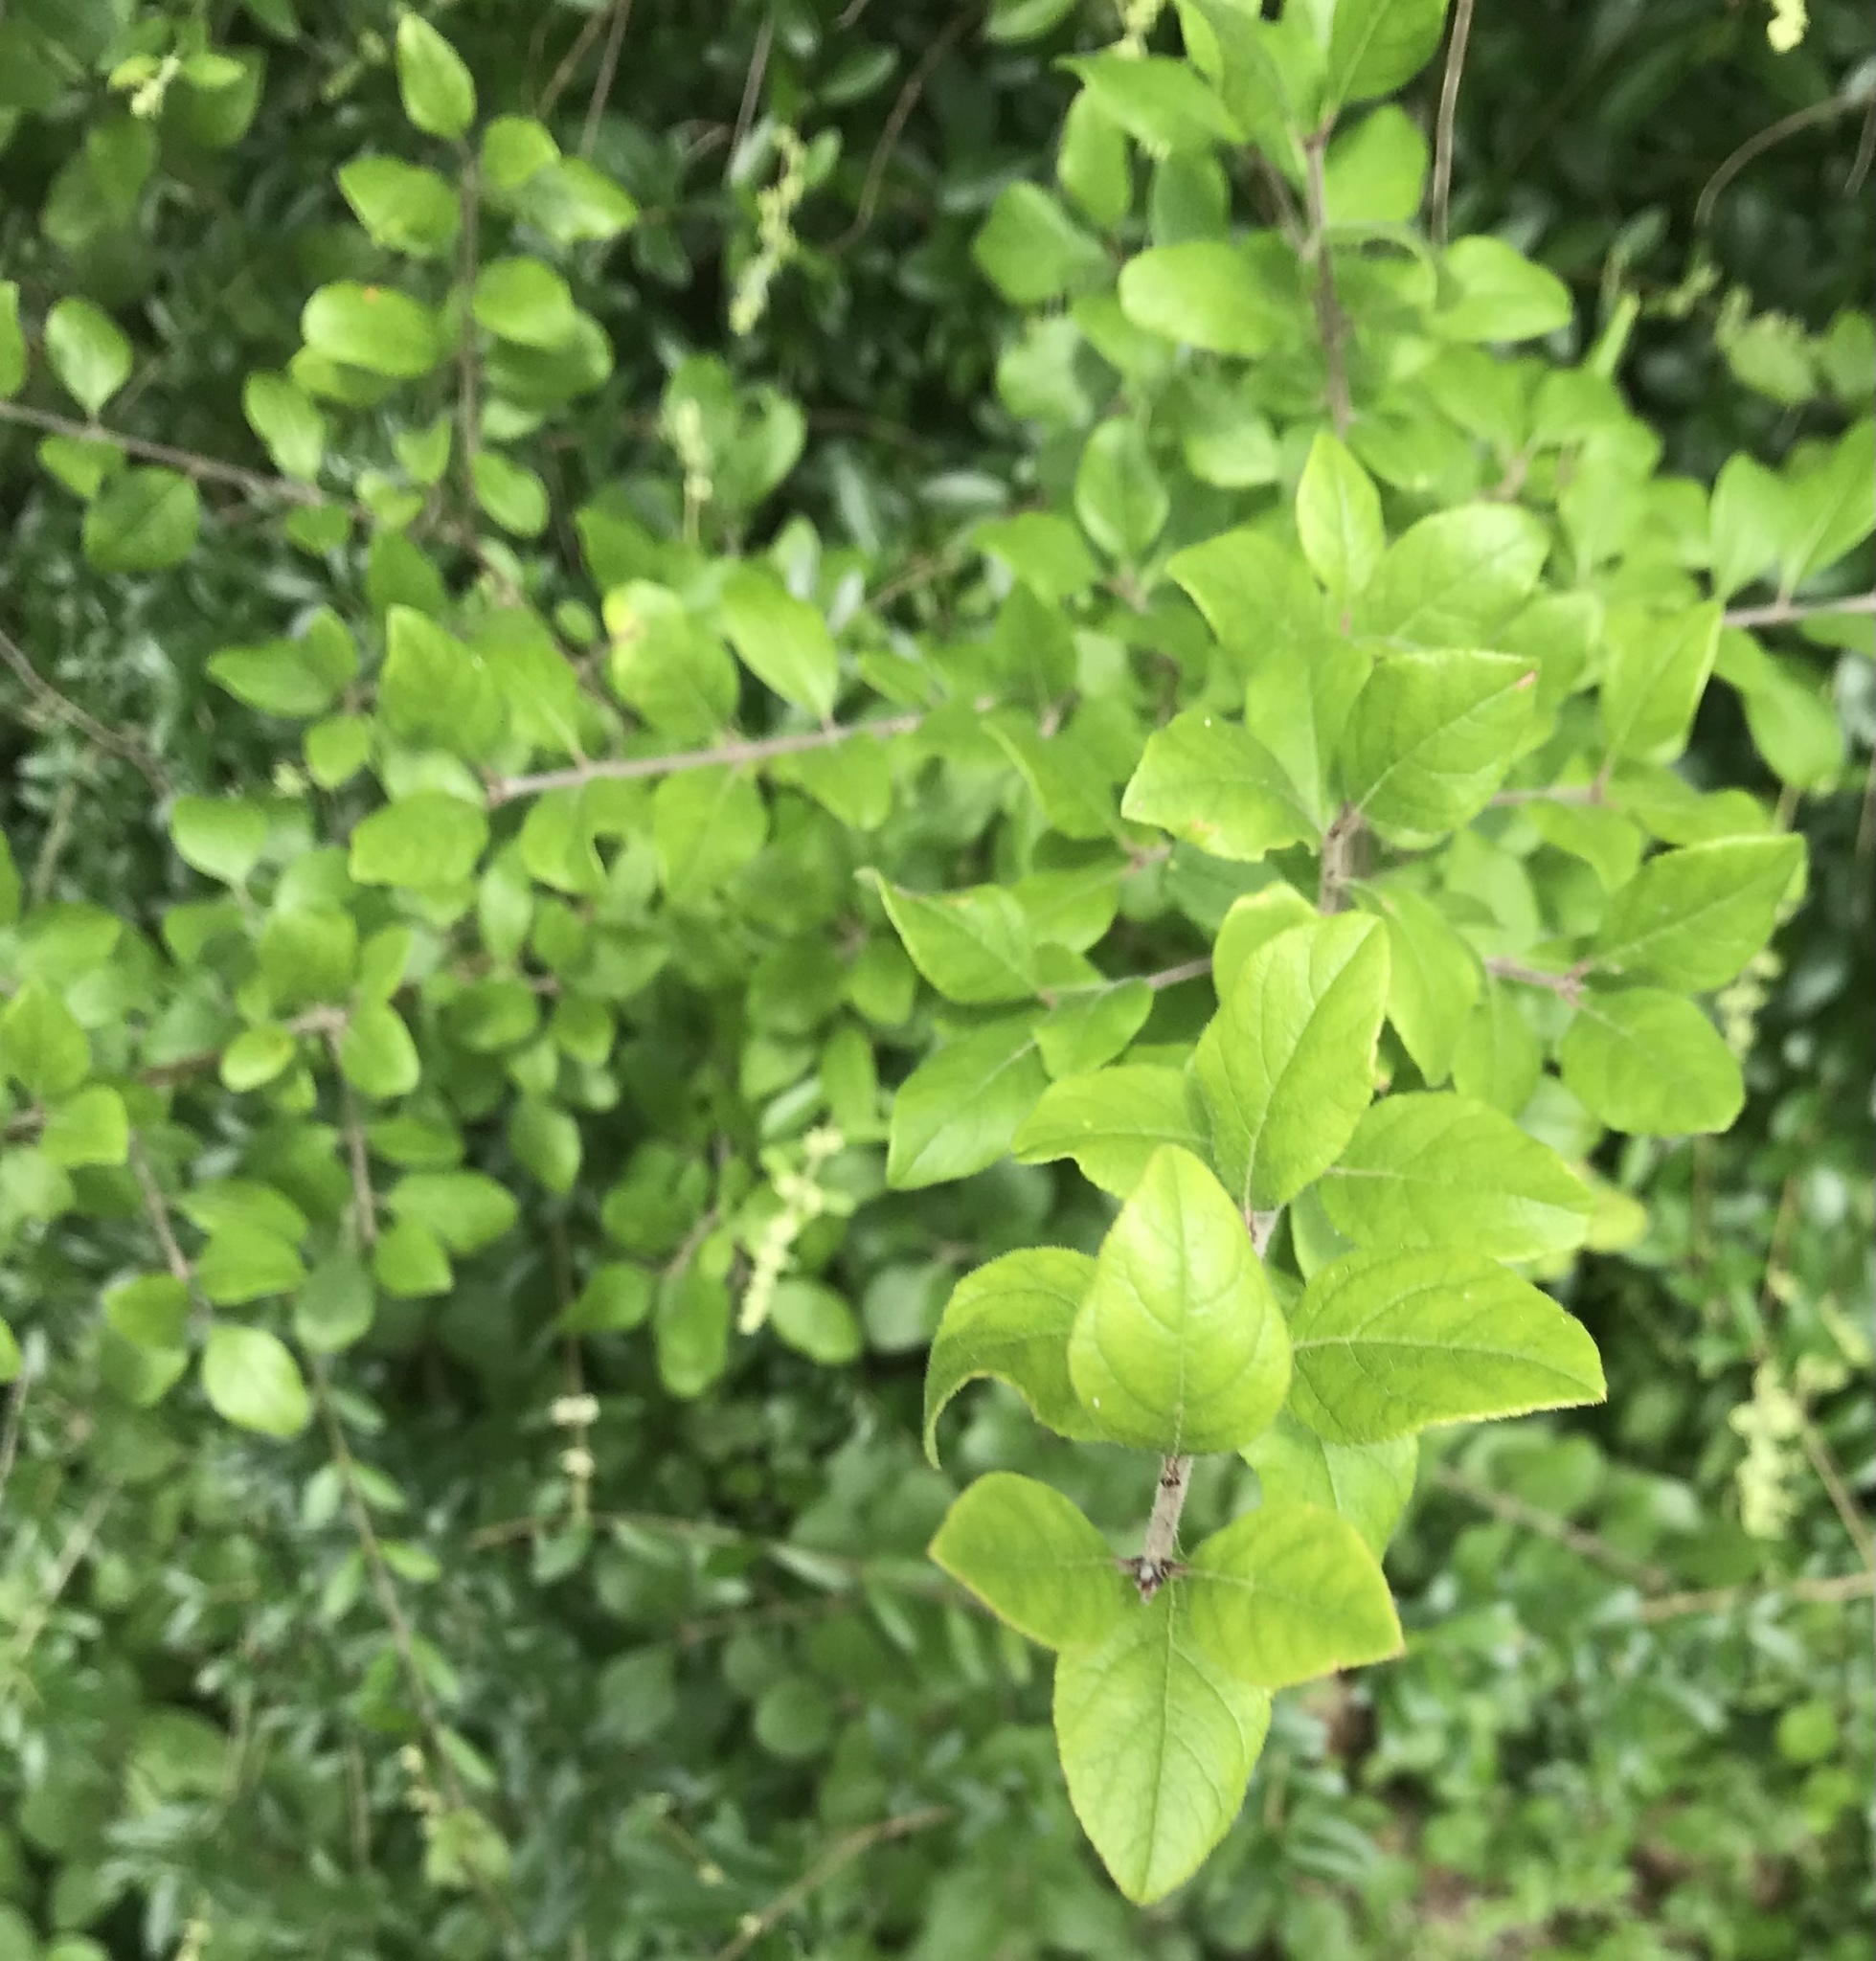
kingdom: Plantae
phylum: Tracheophyta
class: Magnoliopsida
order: Lamiales
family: Oleaceae
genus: Forestiera
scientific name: Forestiera pubescens
